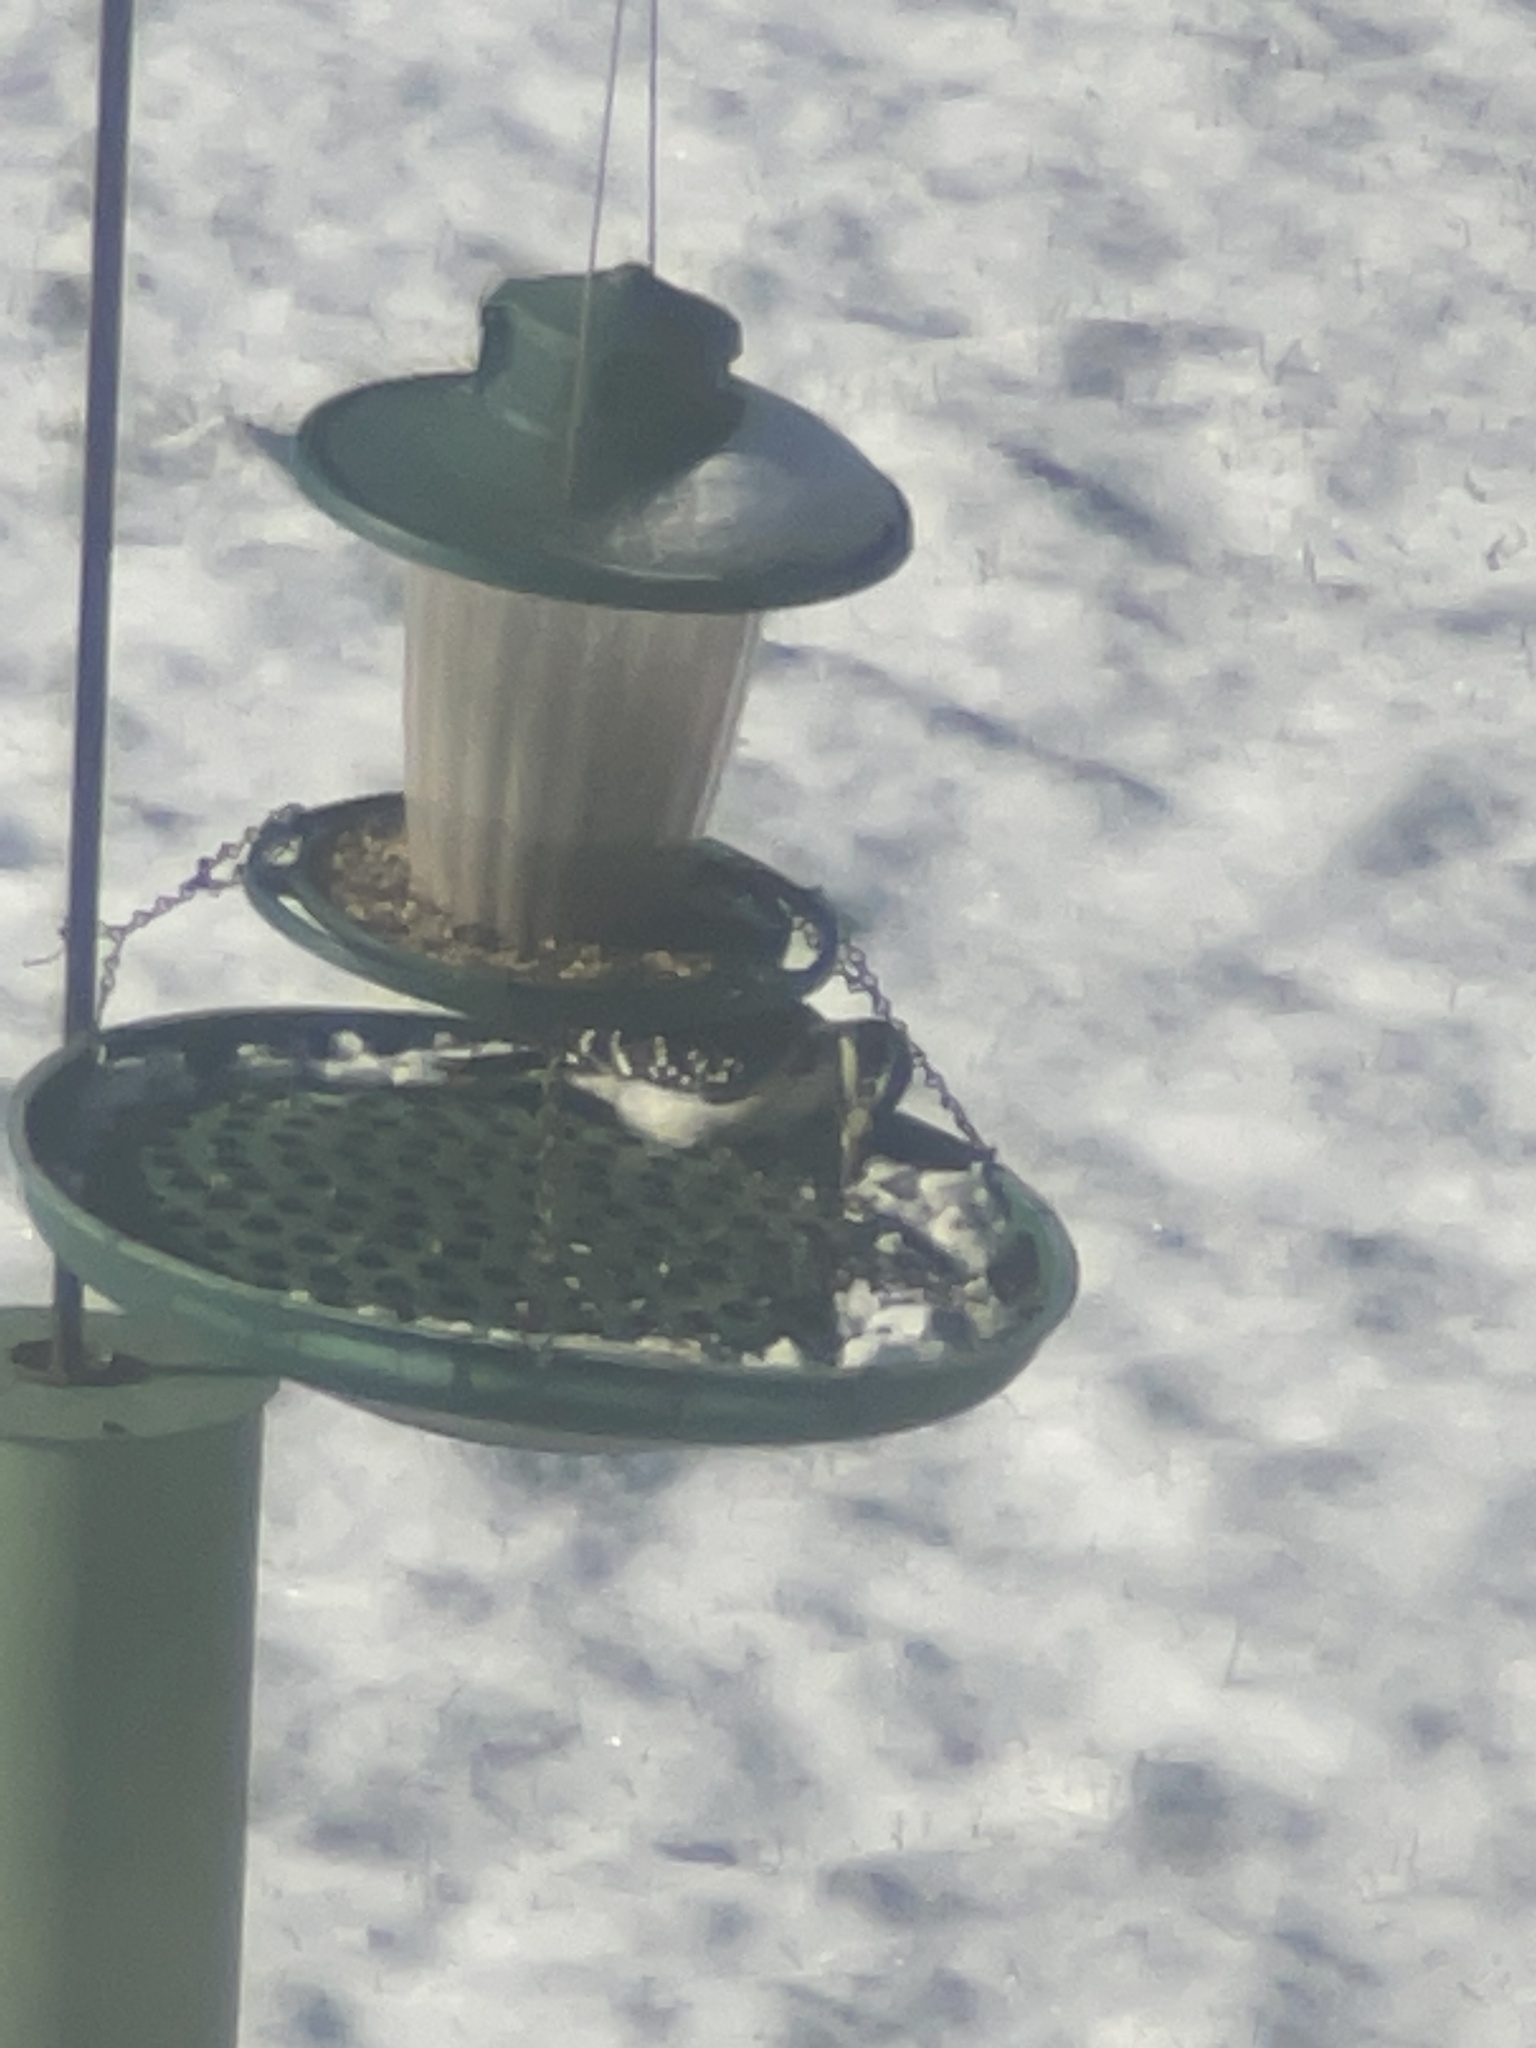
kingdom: Animalia
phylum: Chordata
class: Aves
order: Piciformes
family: Picidae
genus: Leuconotopicus
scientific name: Leuconotopicus villosus
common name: Hairy woodpecker
